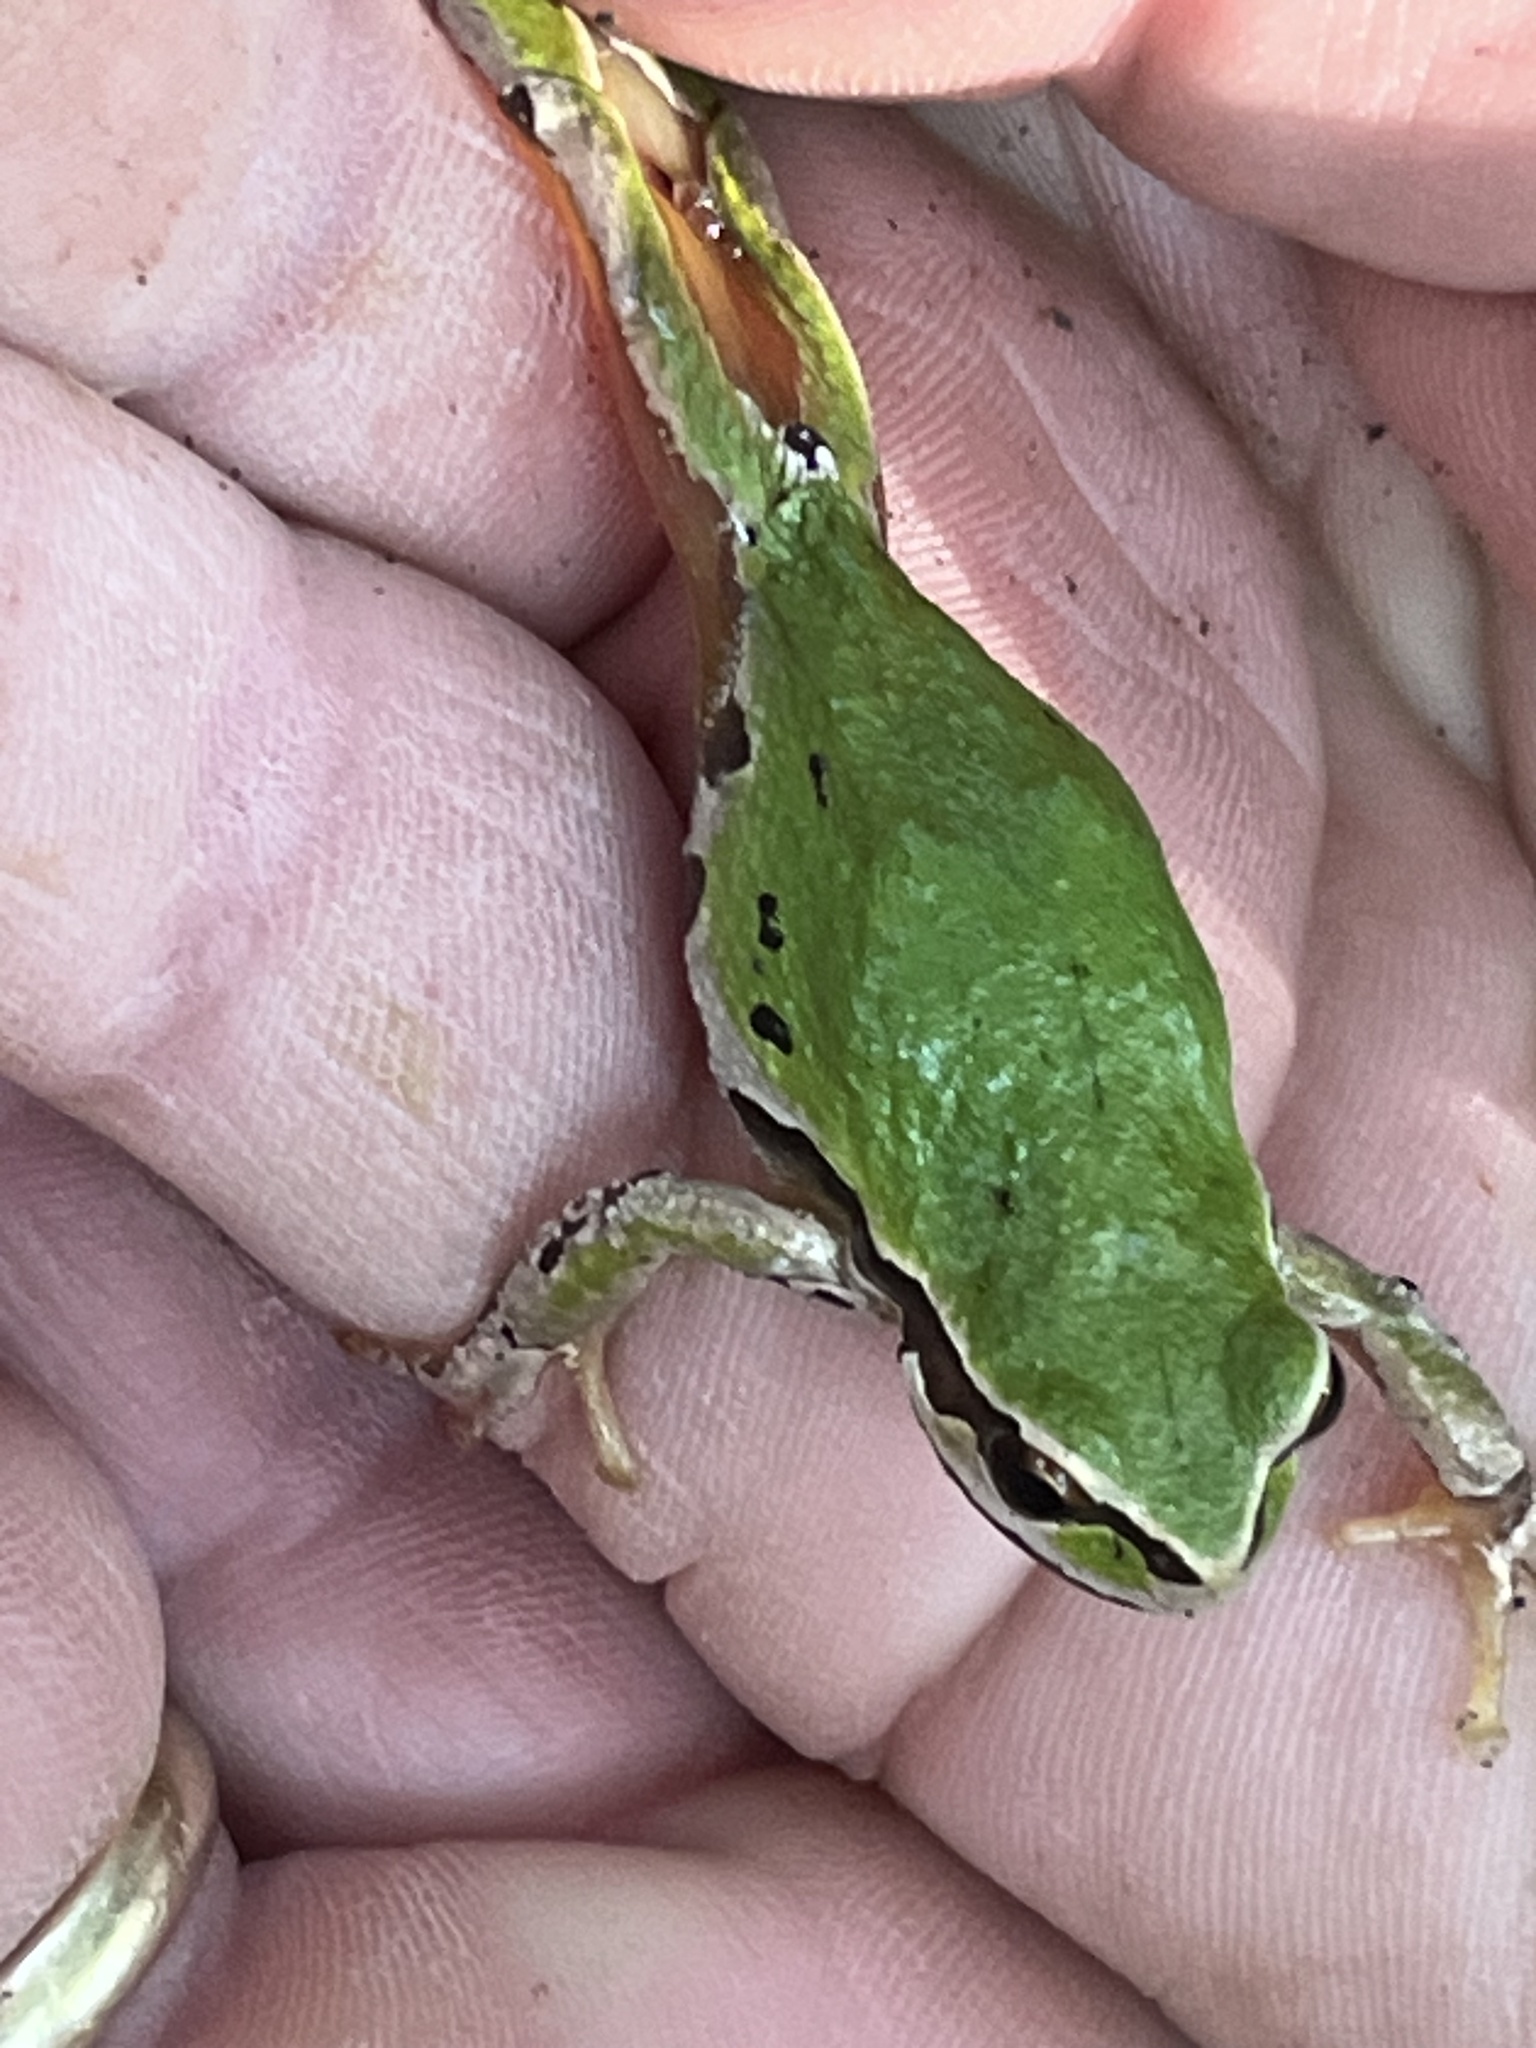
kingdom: Animalia
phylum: Chordata
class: Amphibia
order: Anura
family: Hylidae
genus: Pseudacris
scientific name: Pseudacris regilla
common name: Pacific chorus frog
